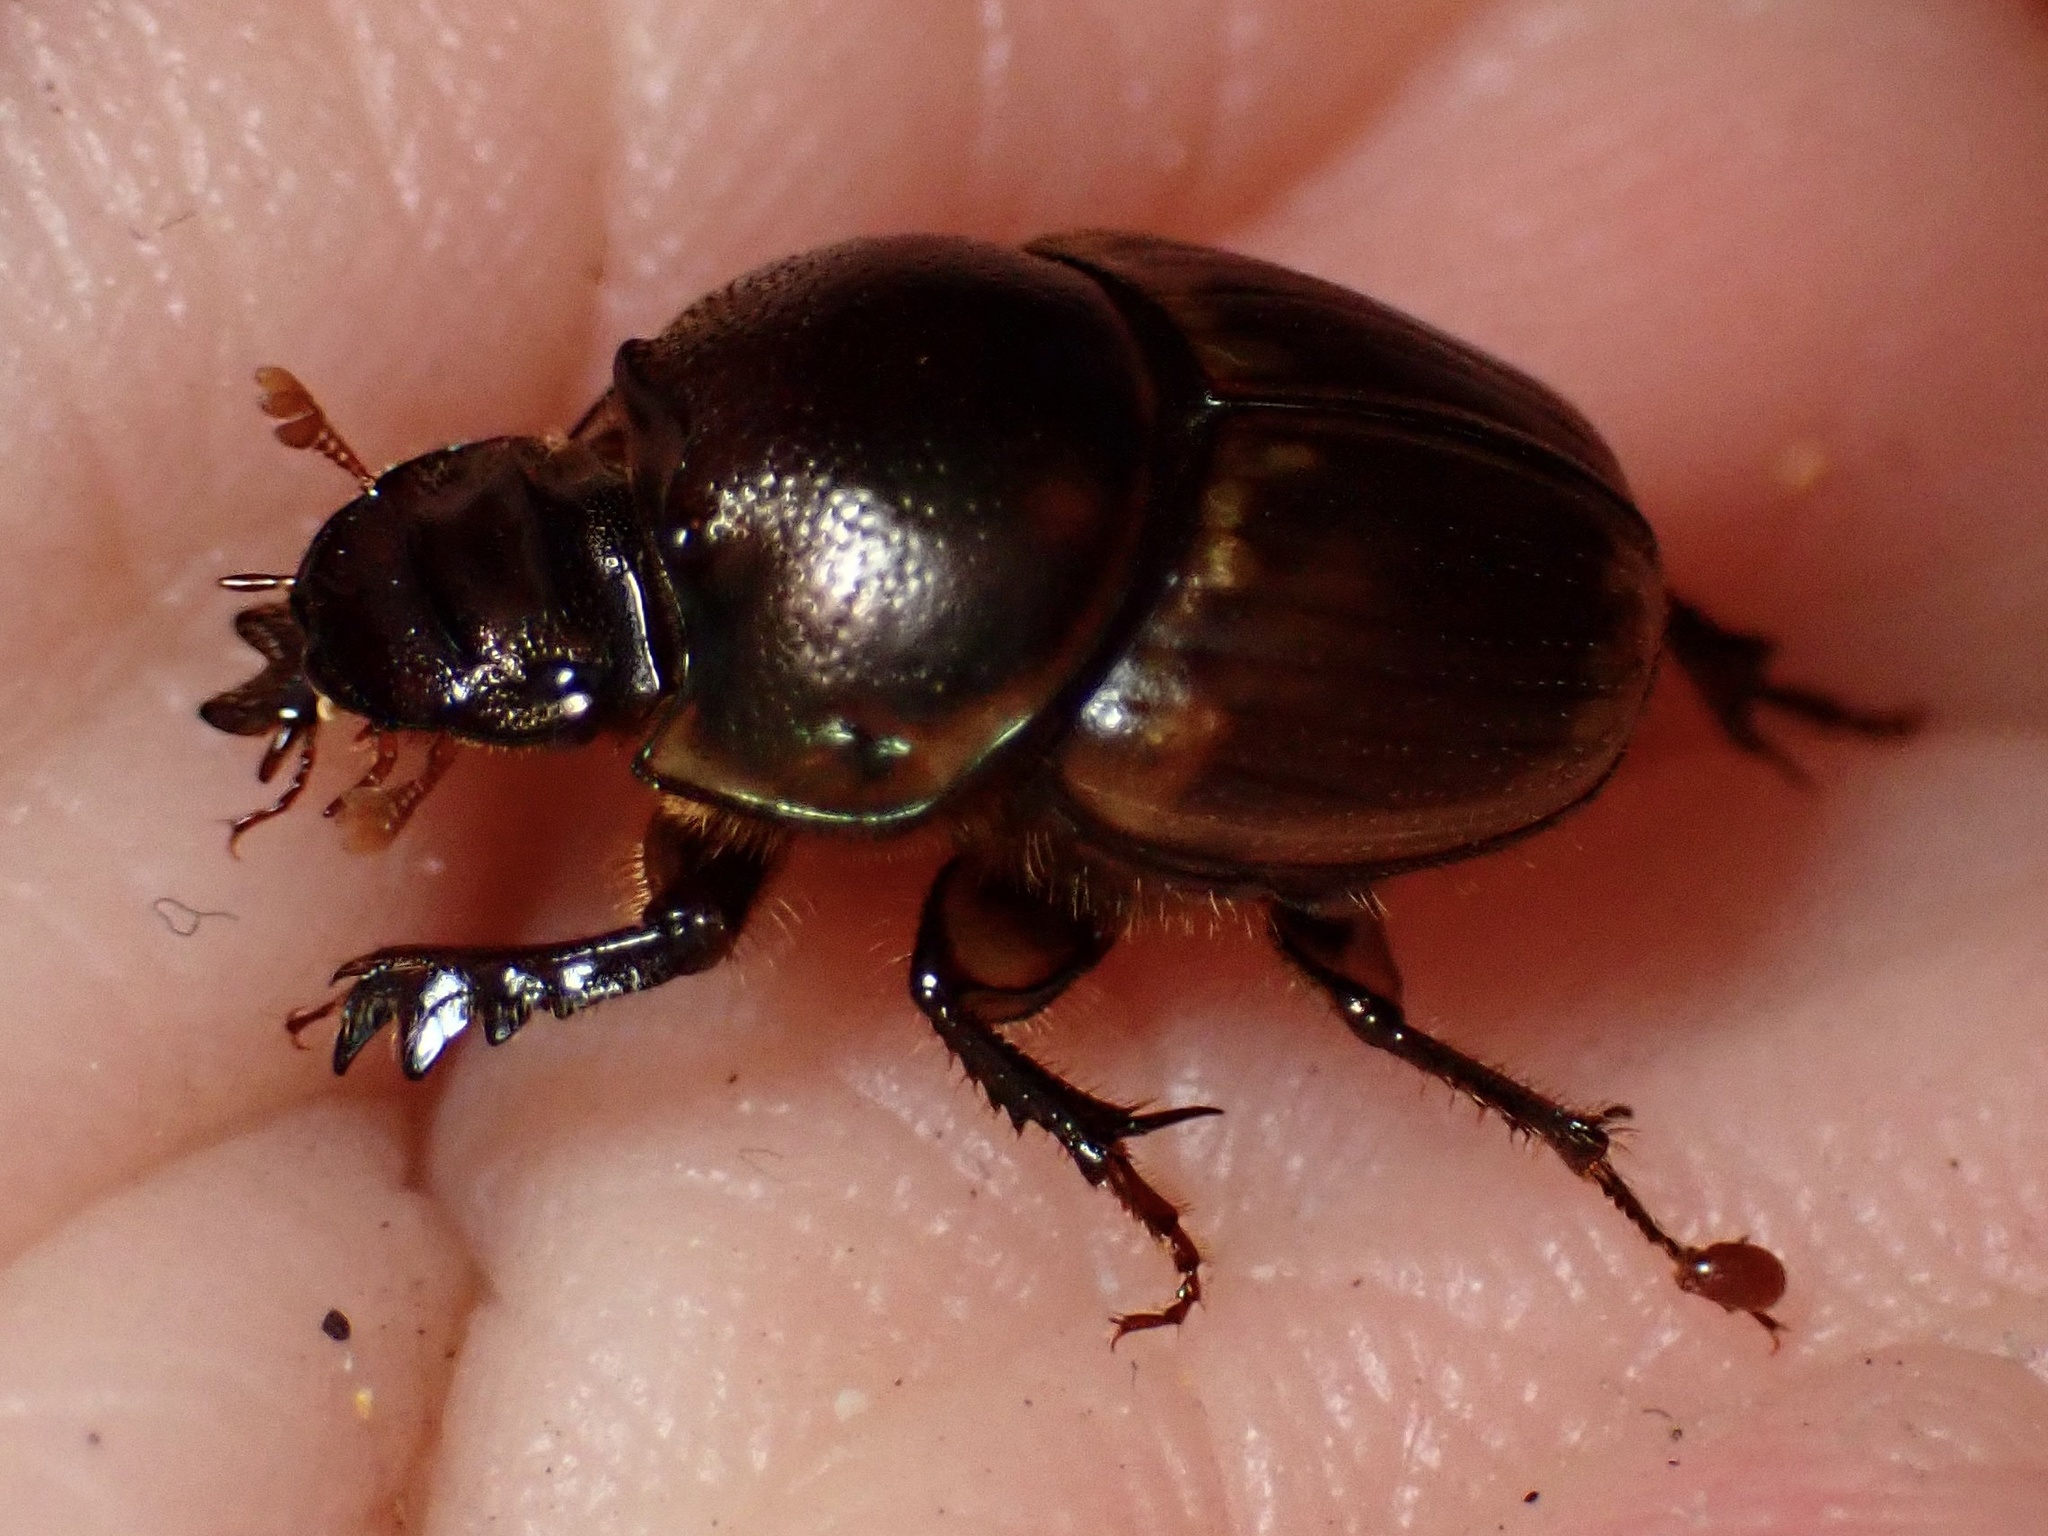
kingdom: Animalia
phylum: Arthropoda
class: Insecta
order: Coleoptera
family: Scarabaeidae
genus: Digitonthophagus
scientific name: Digitonthophagus gazella
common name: Brown dung beetle
